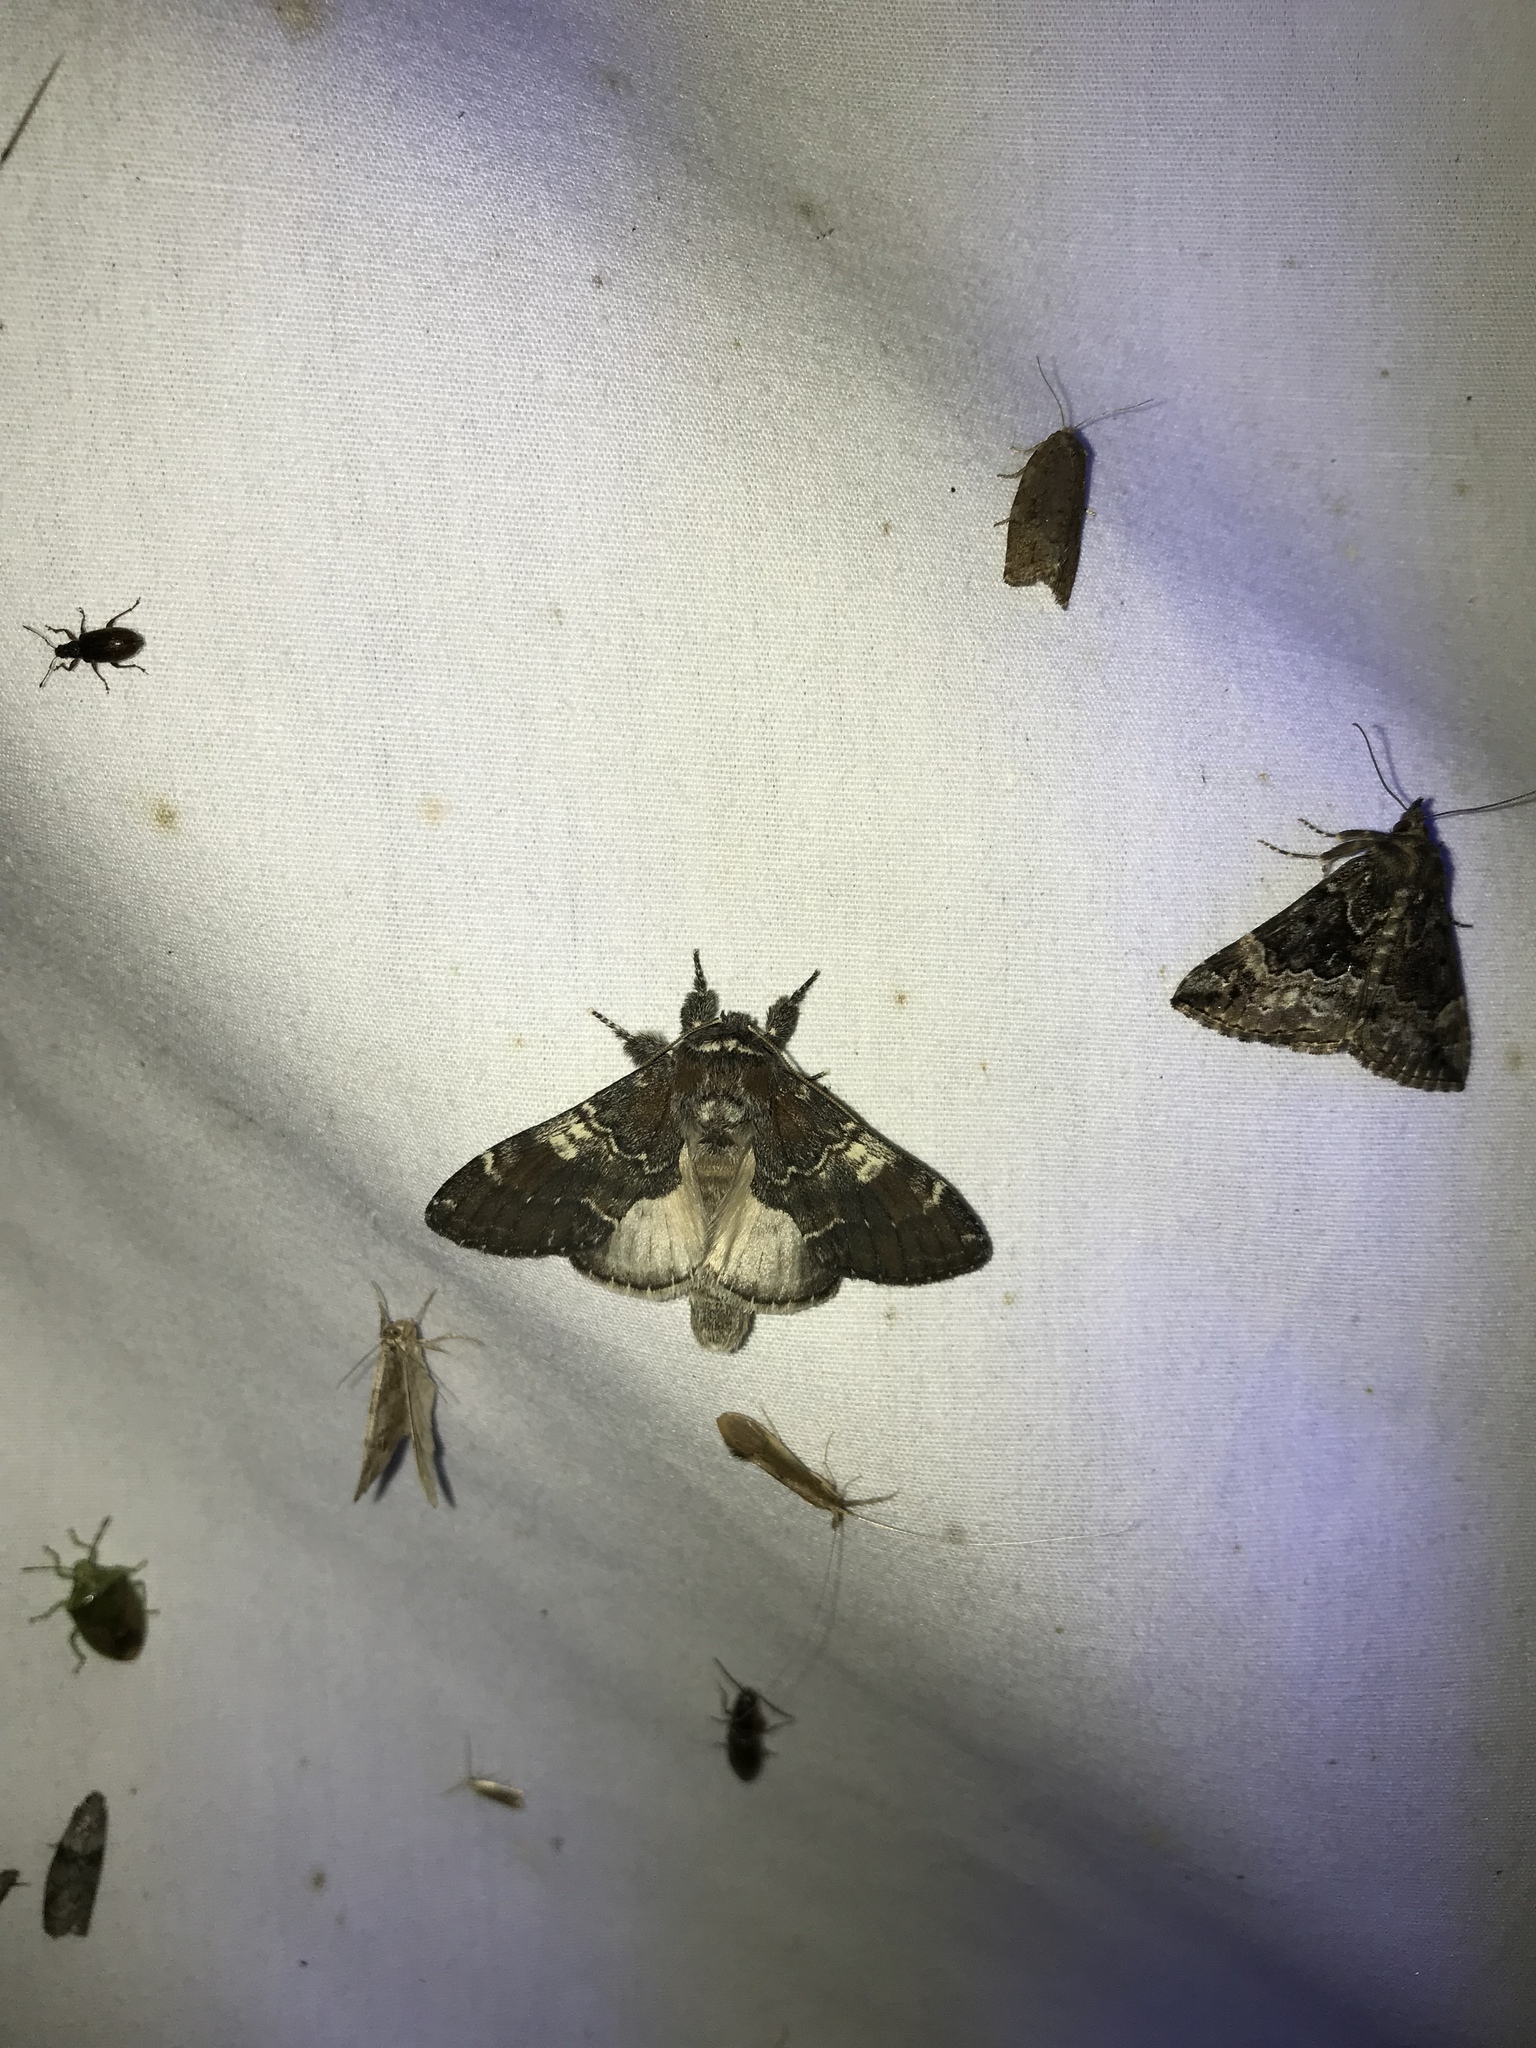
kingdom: Animalia
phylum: Arthropoda
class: Insecta
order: Lepidoptera
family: Notodontidae
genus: Peridea
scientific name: Peridea ferruginea
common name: Chocolate prominent
